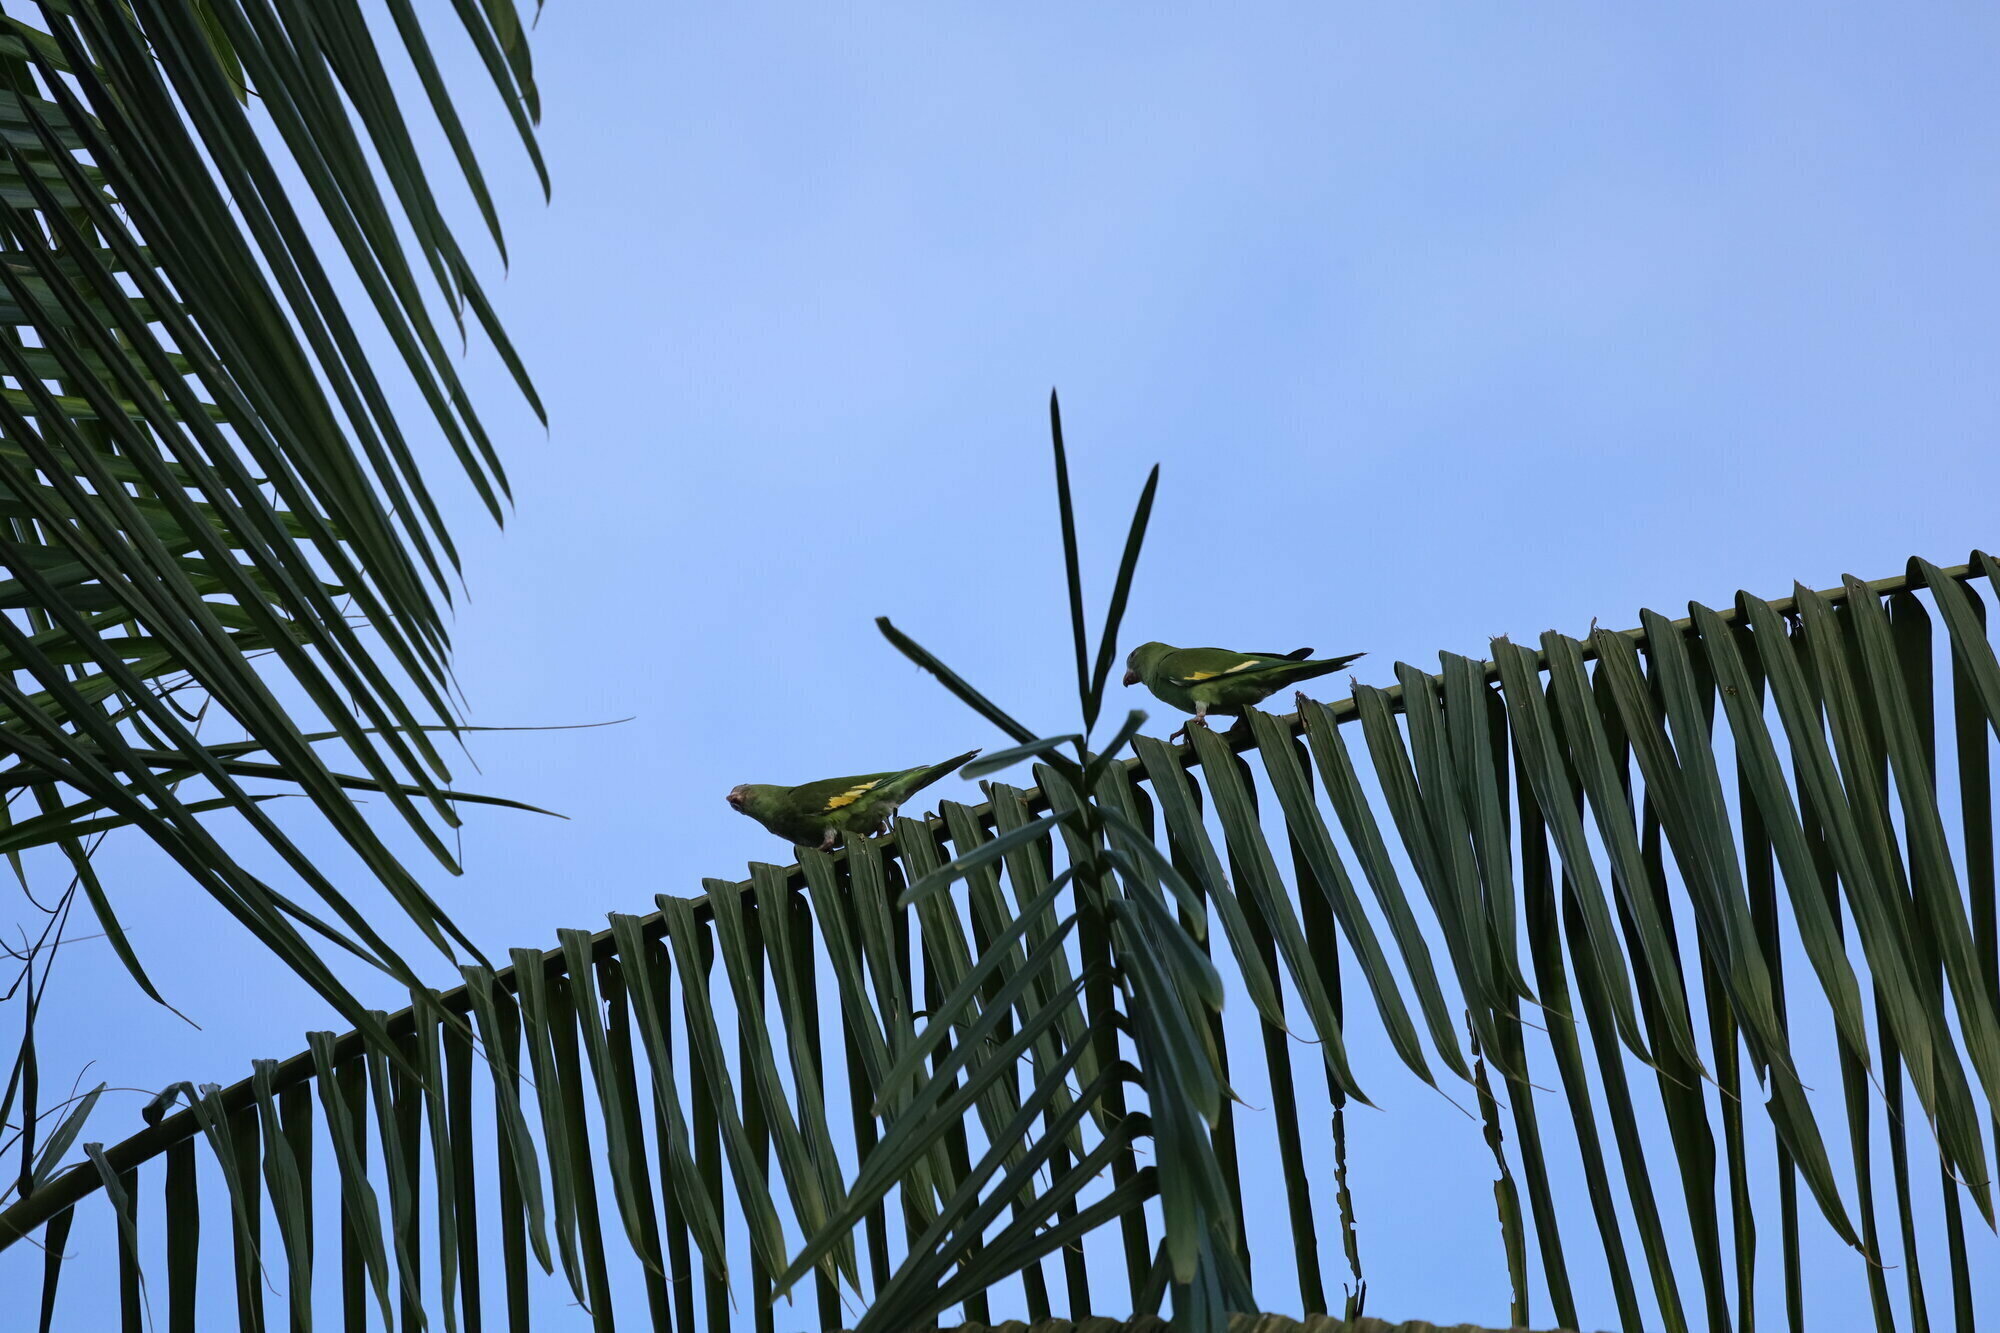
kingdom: Animalia
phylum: Chordata
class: Aves
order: Psittaciformes
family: Psittacidae
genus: Brotogeris
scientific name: Brotogeris versicolurus
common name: White-winged parakeet
